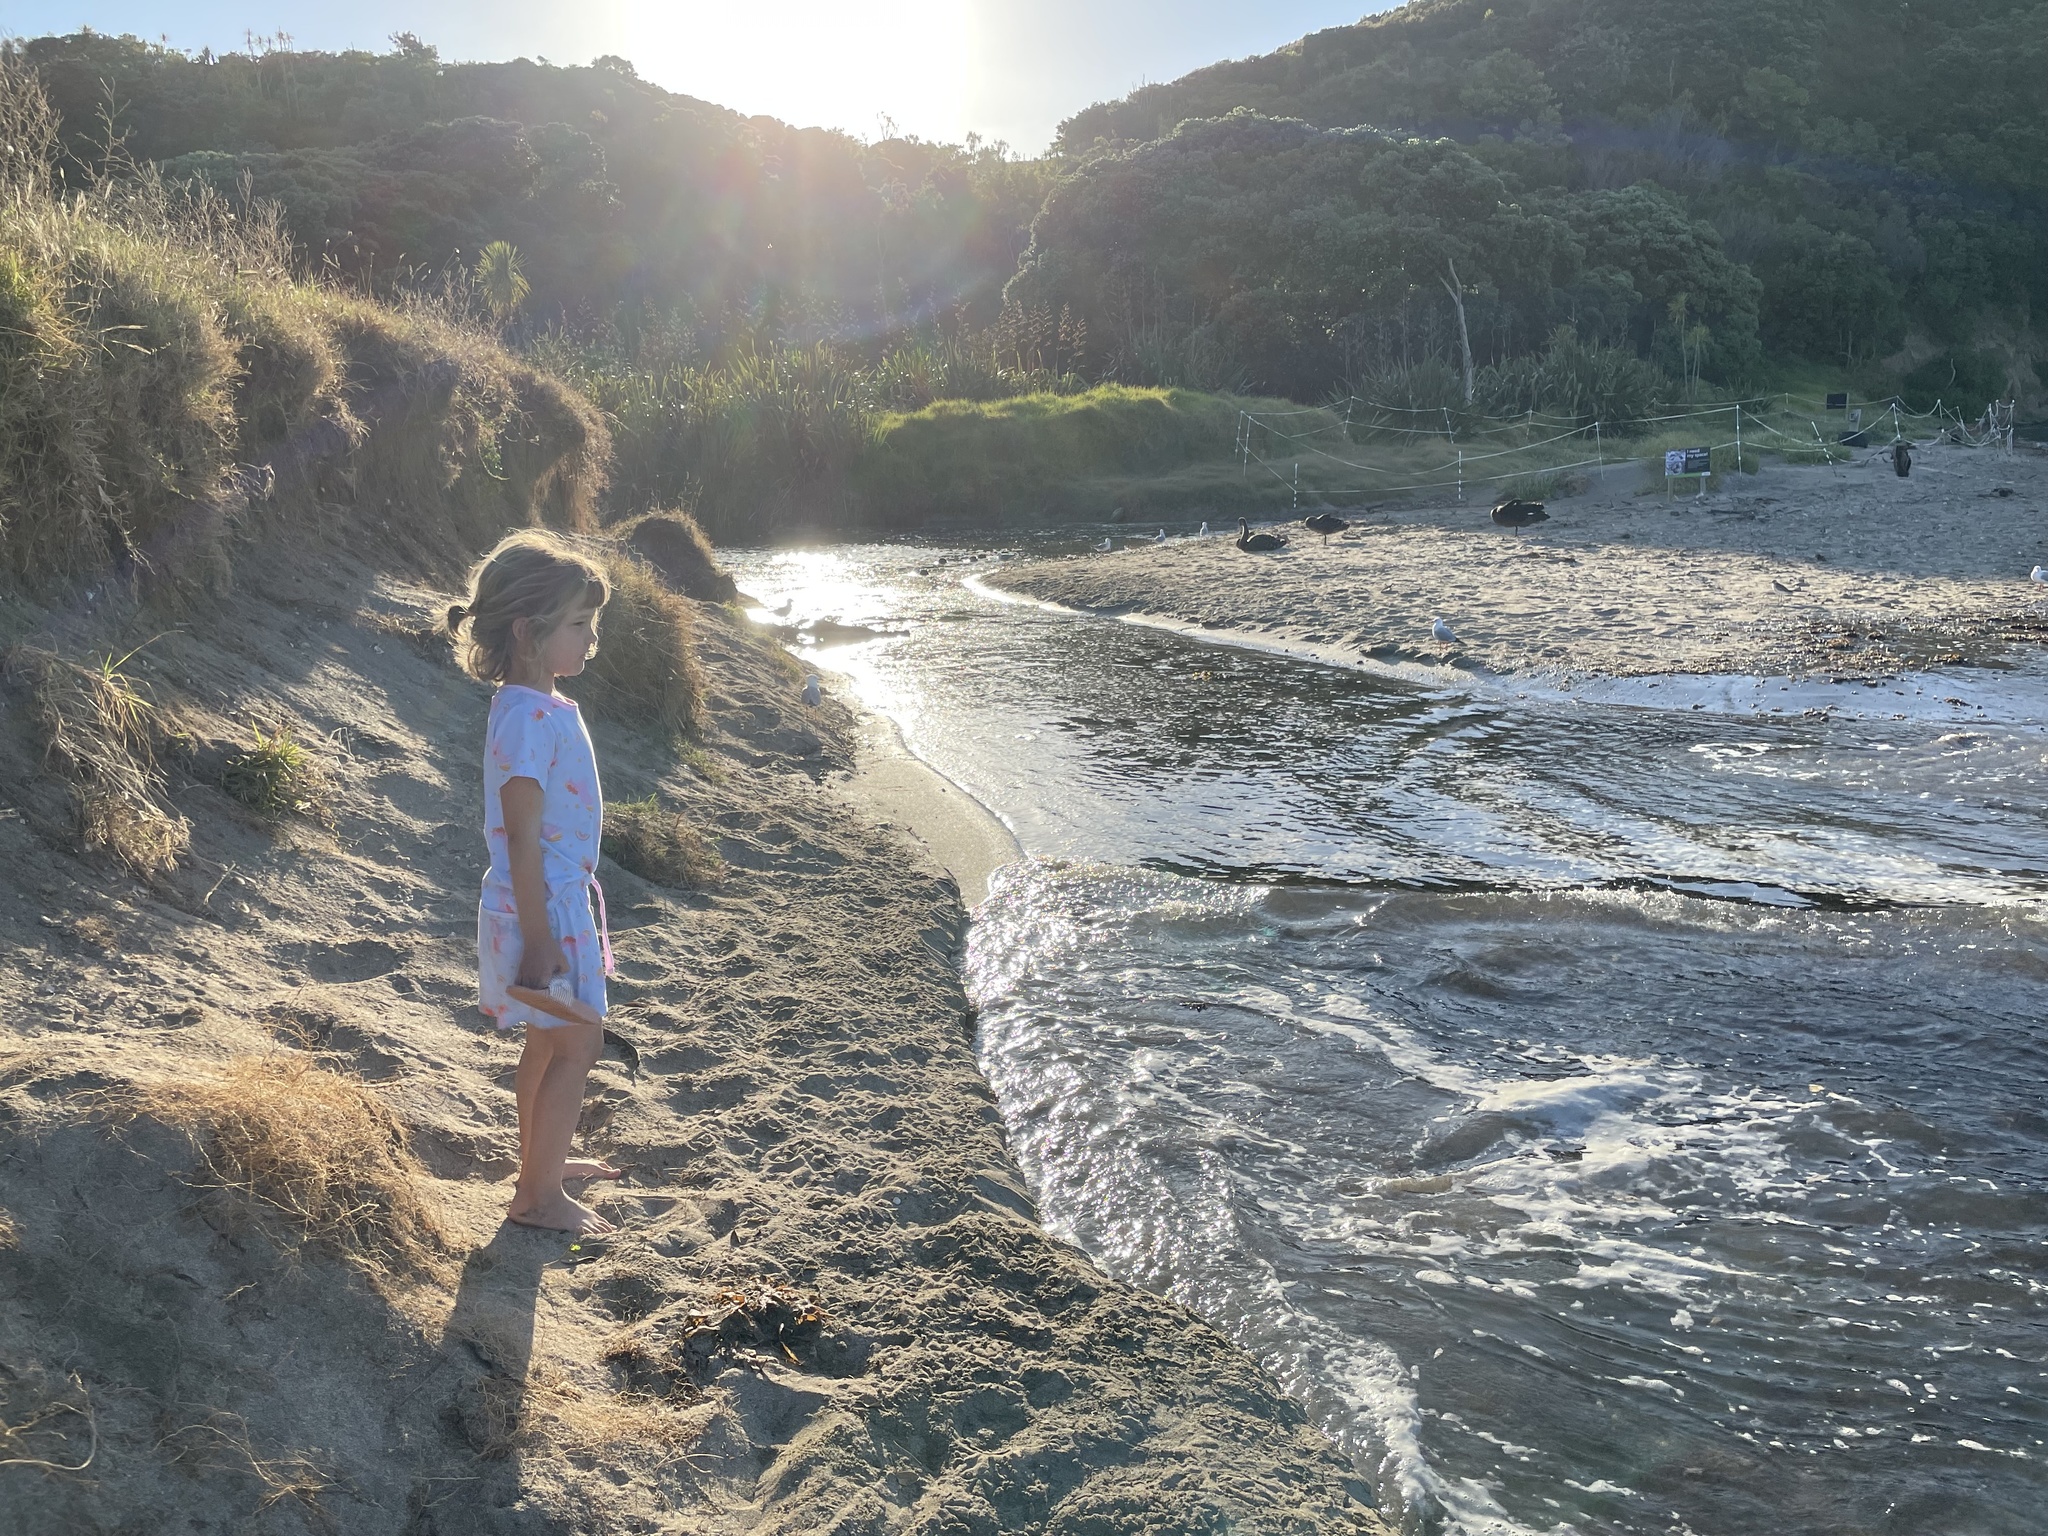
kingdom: Animalia
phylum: Chordata
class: Aves
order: Anseriformes
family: Anatidae
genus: Cygnus
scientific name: Cygnus atratus
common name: Black swan
